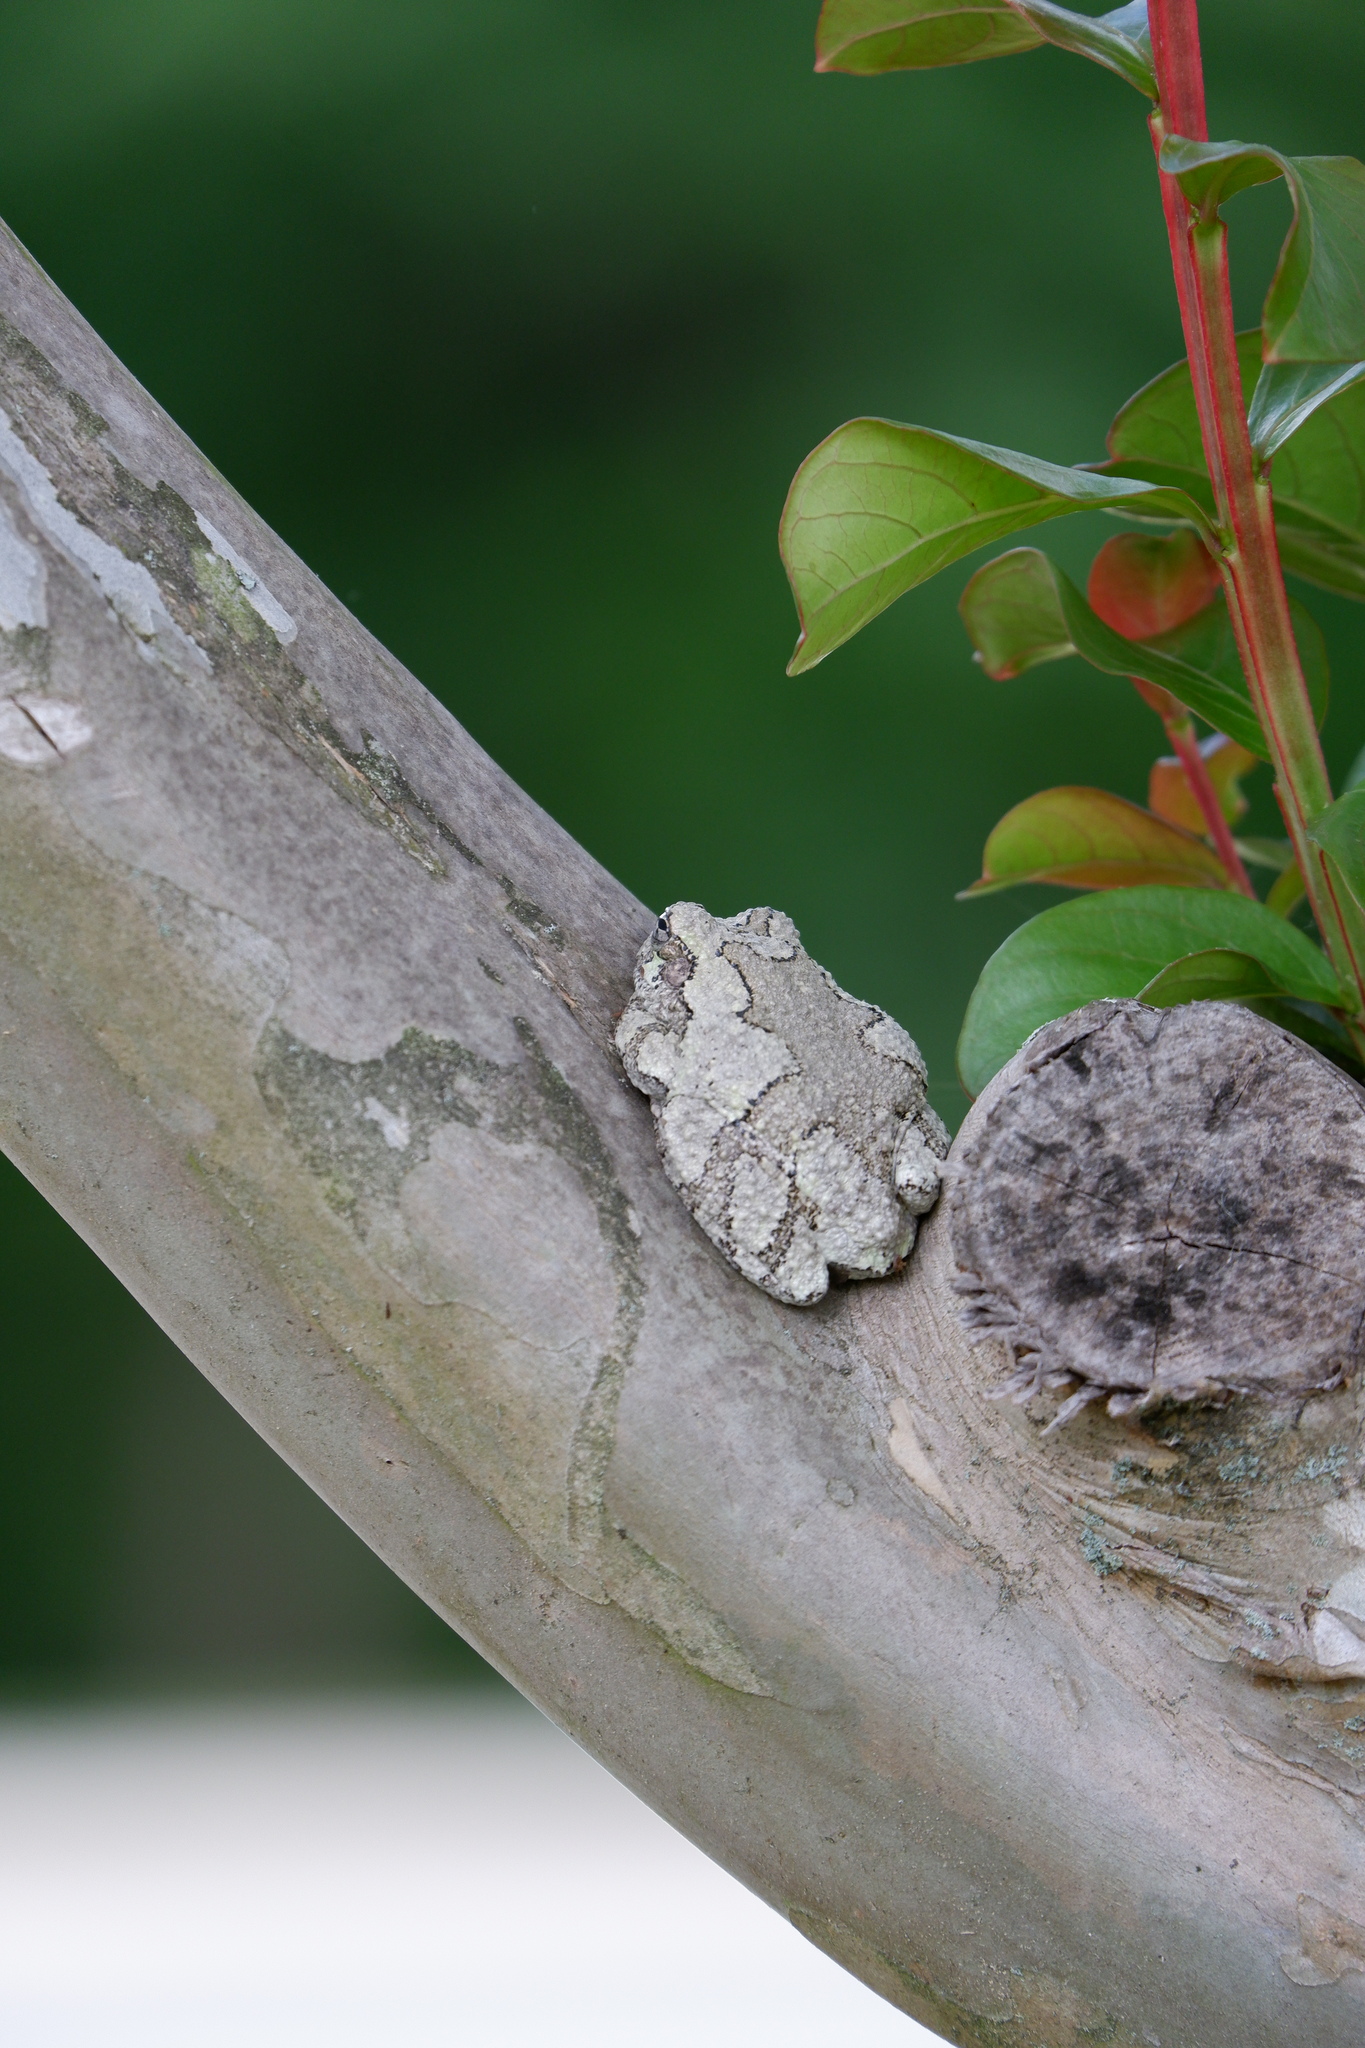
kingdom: Animalia
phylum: Chordata
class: Amphibia
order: Anura
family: Hylidae
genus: Dryophytes
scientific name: Dryophytes chrysoscelis
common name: Cope's gray treefrog
